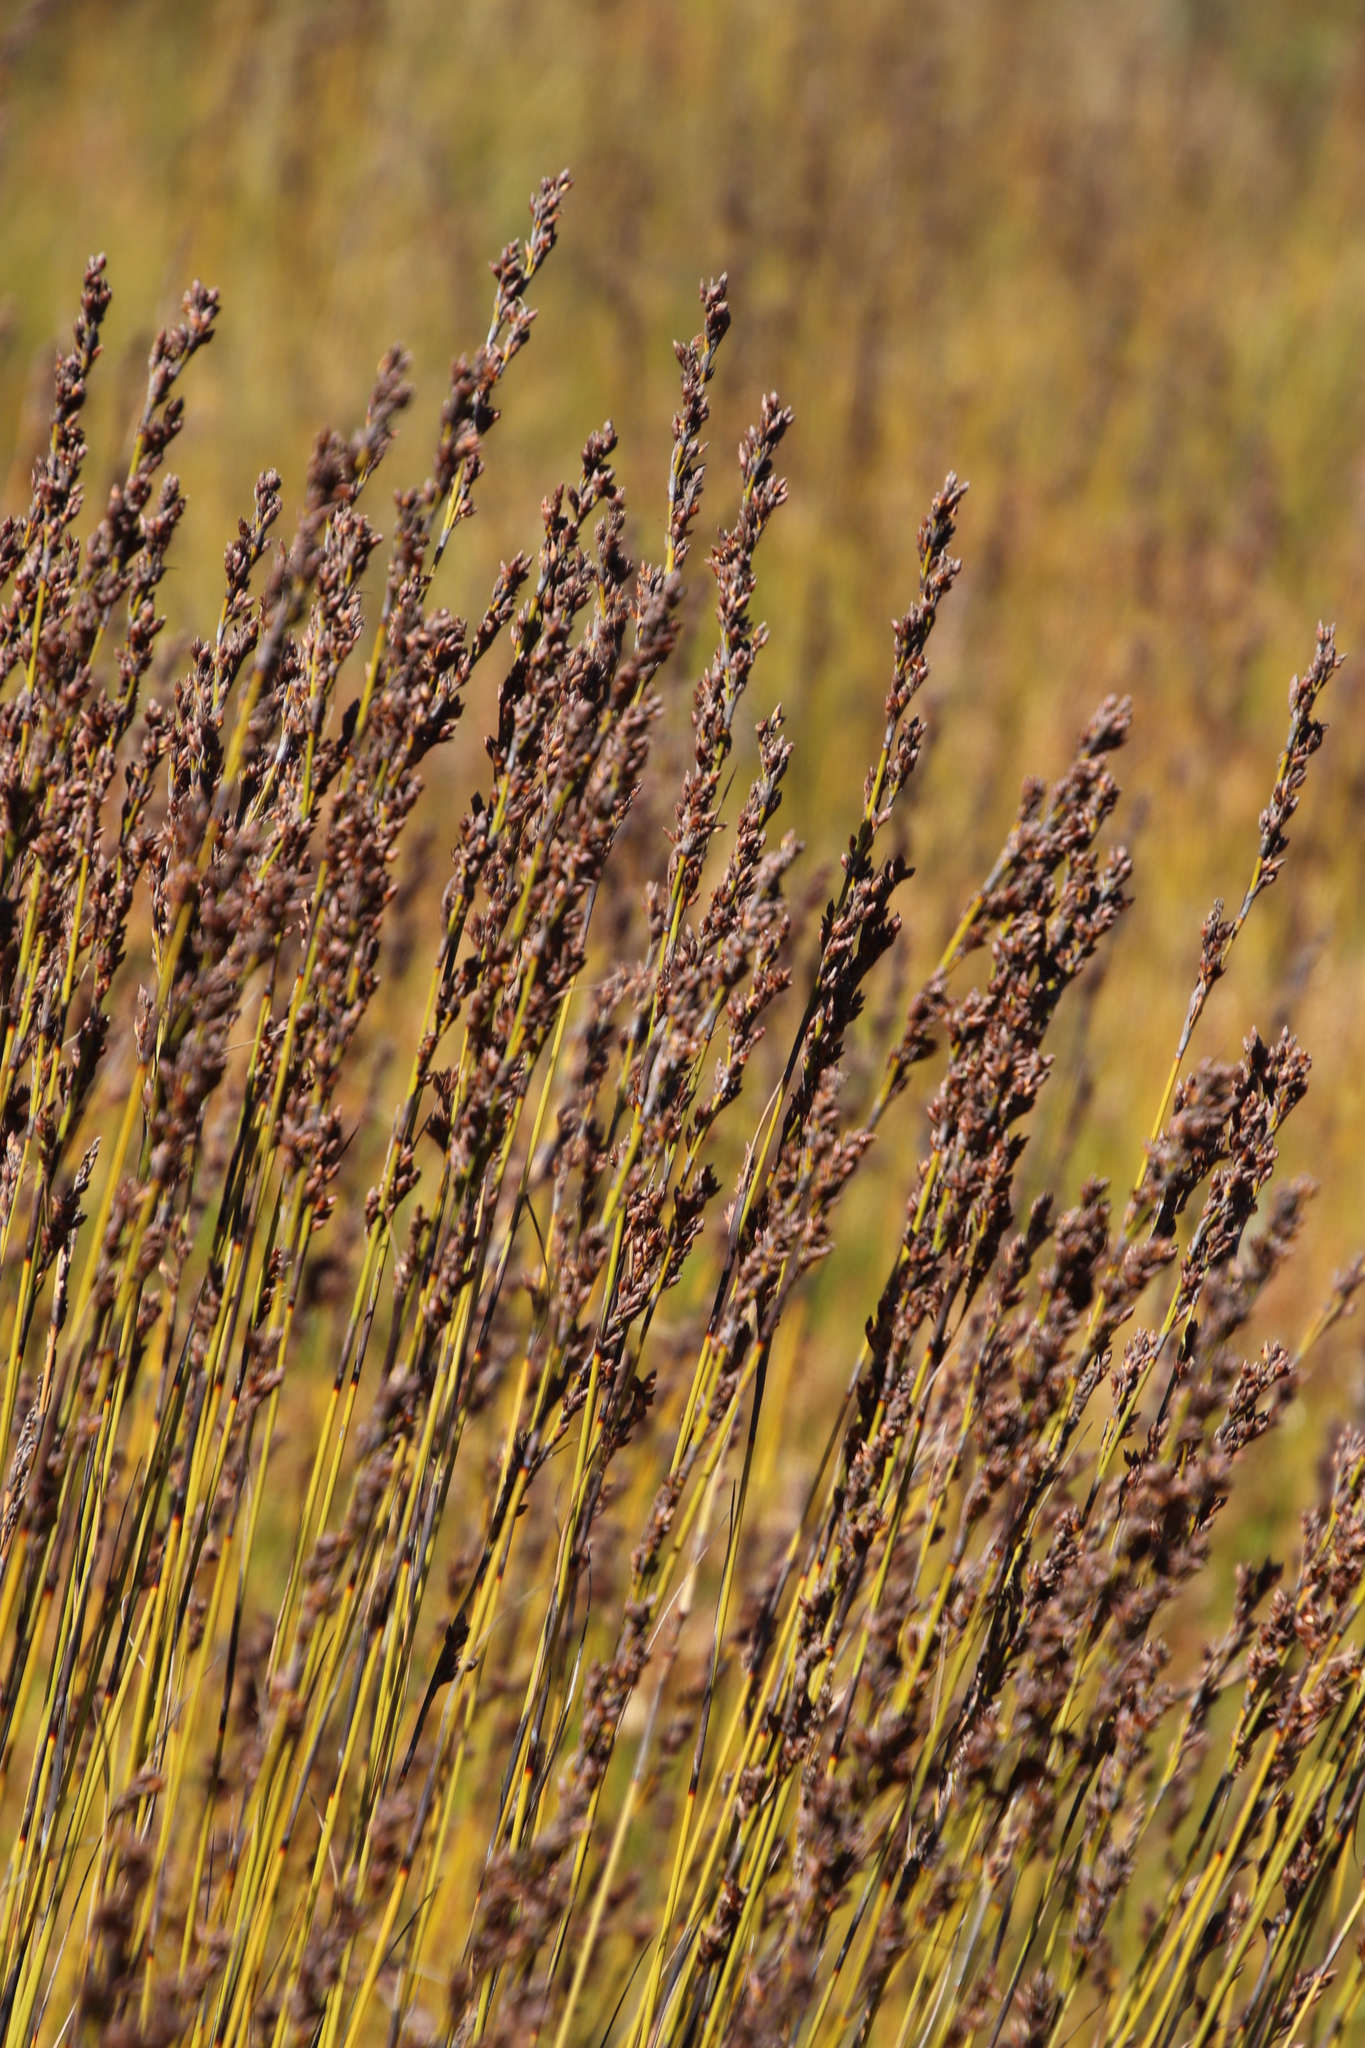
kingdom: Plantae
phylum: Tracheophyta
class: Liliopsida
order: Poales
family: Cyperaceae
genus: Tetraria
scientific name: Tetraria flexuosa
